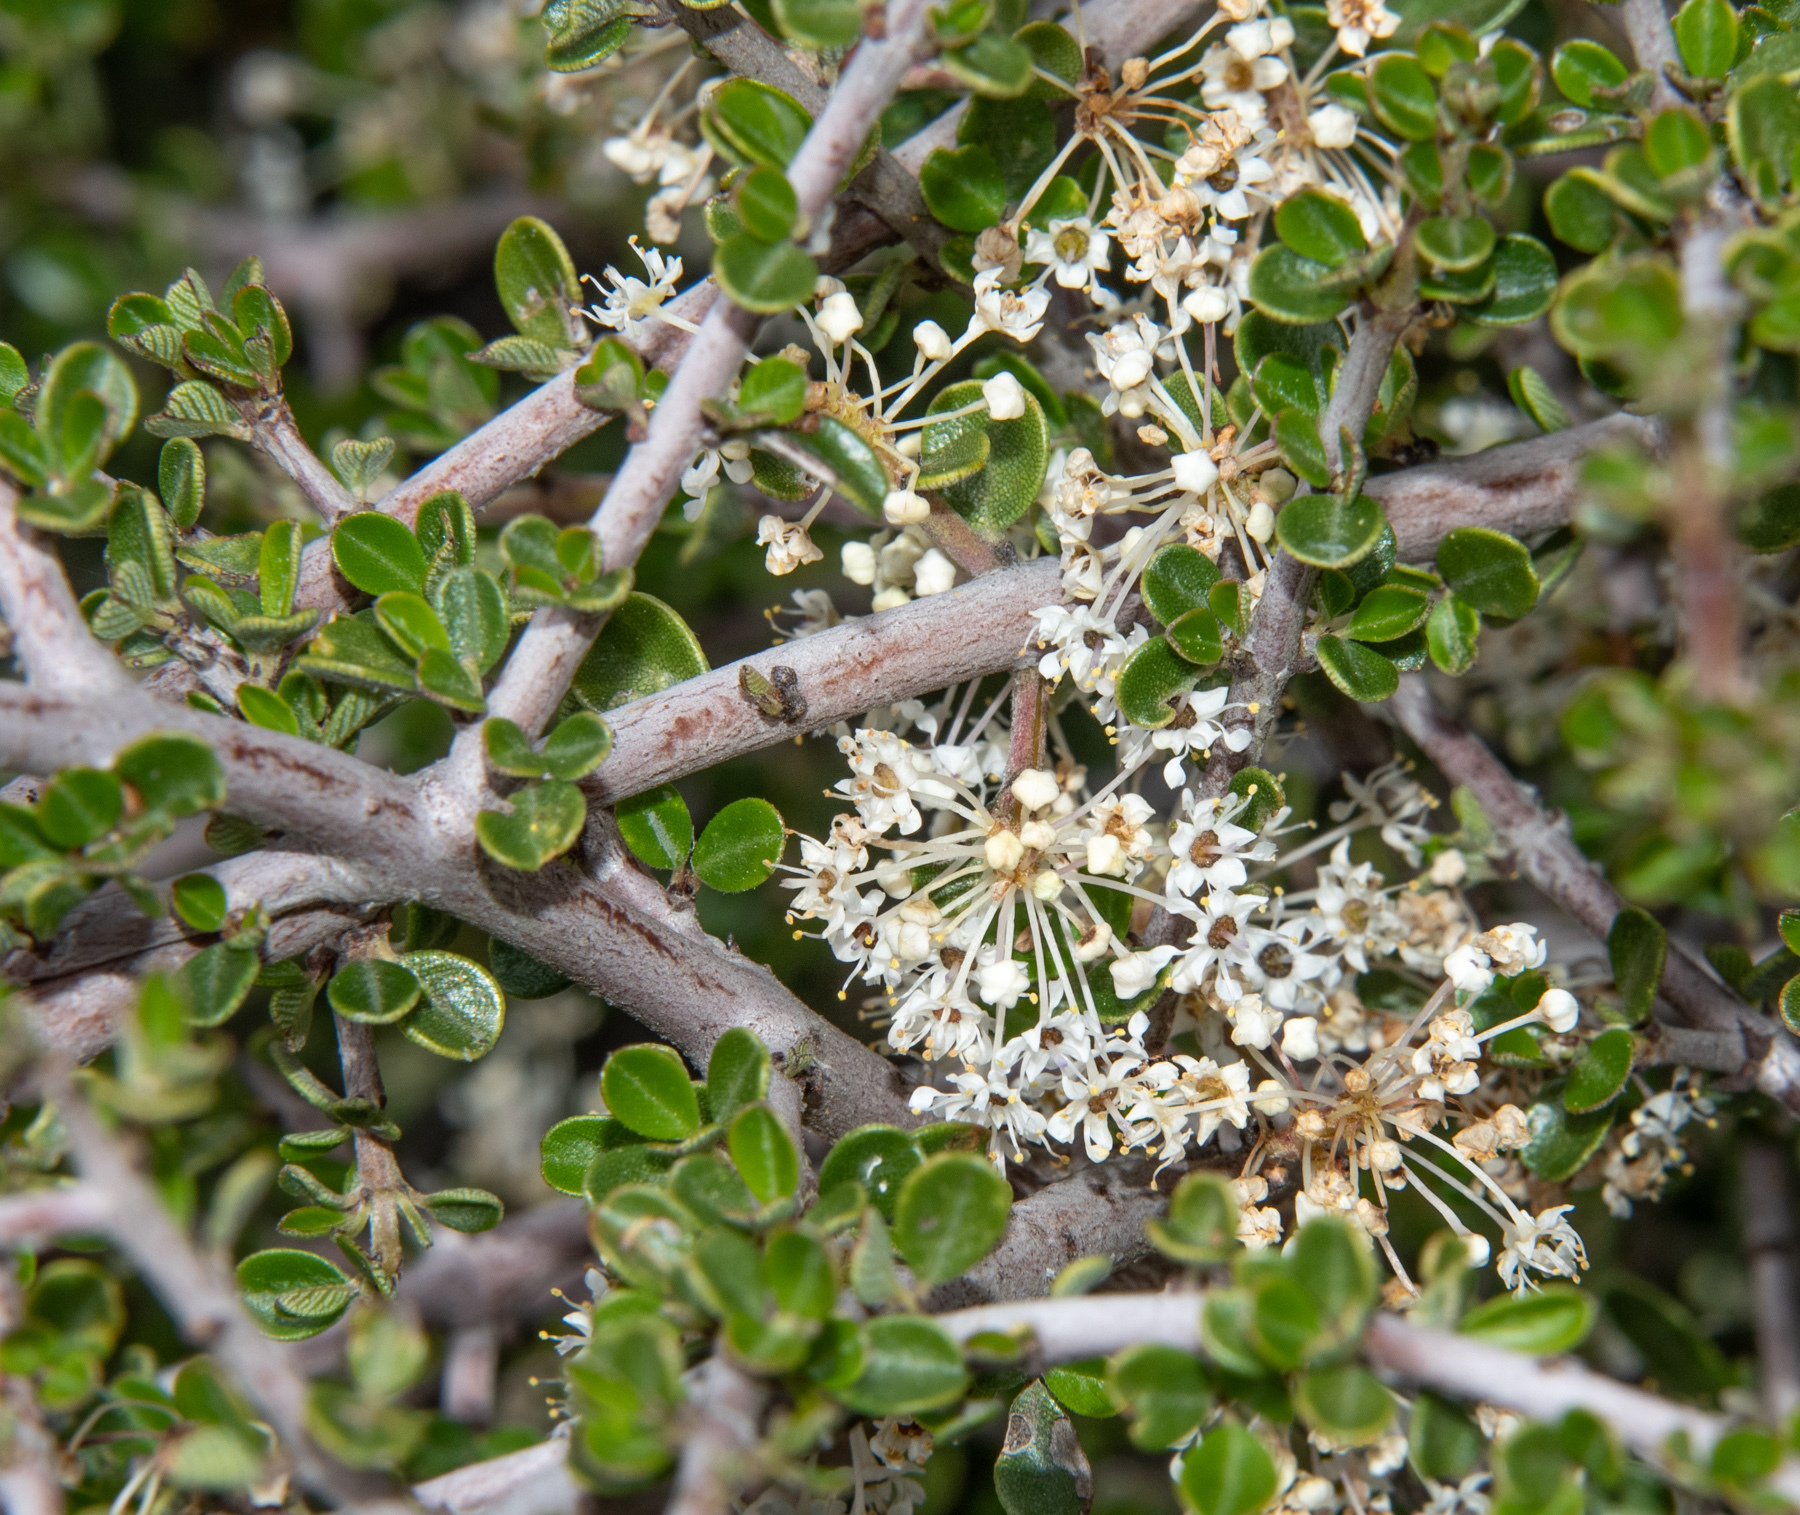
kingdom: Plantae
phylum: Tracheophyta
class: Magnoliopsida
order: Rosales
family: Rhamnaceae
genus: Ceanothus
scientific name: Ceanothus cuneatus
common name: Cuneate ceanothus
